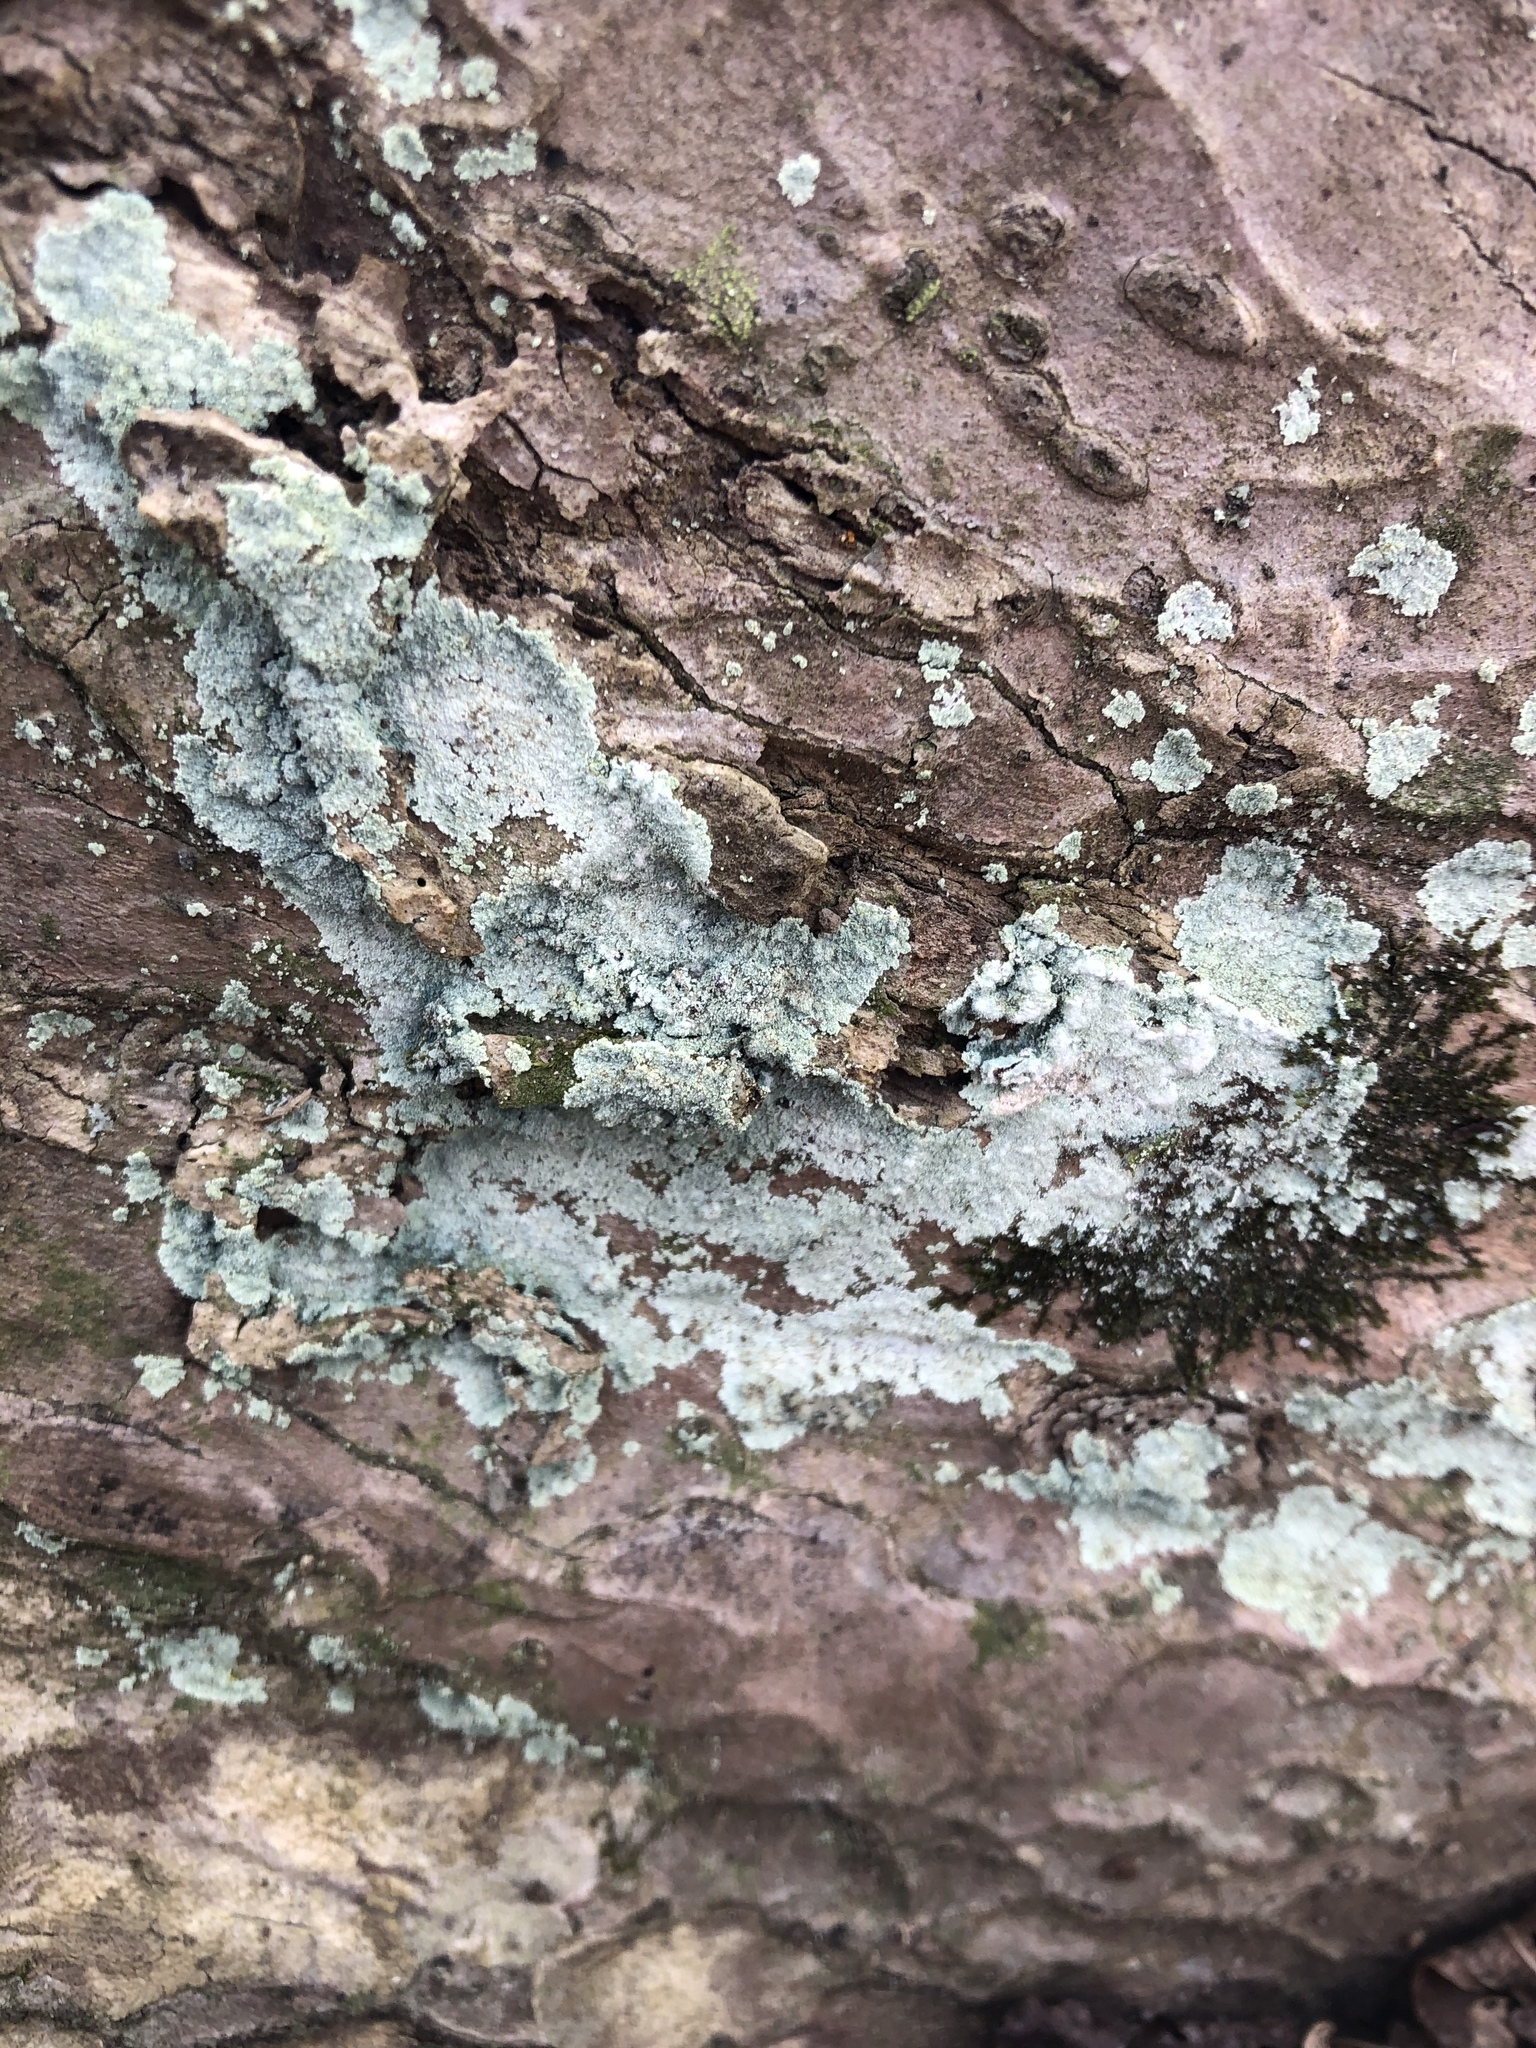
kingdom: Fungi
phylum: Ascomycota
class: Lecanoromycetes
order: Lecanorales
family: Stereocaulaceae
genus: Lepraria
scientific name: Lepraria lobificans
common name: Fluffy dust lichen
